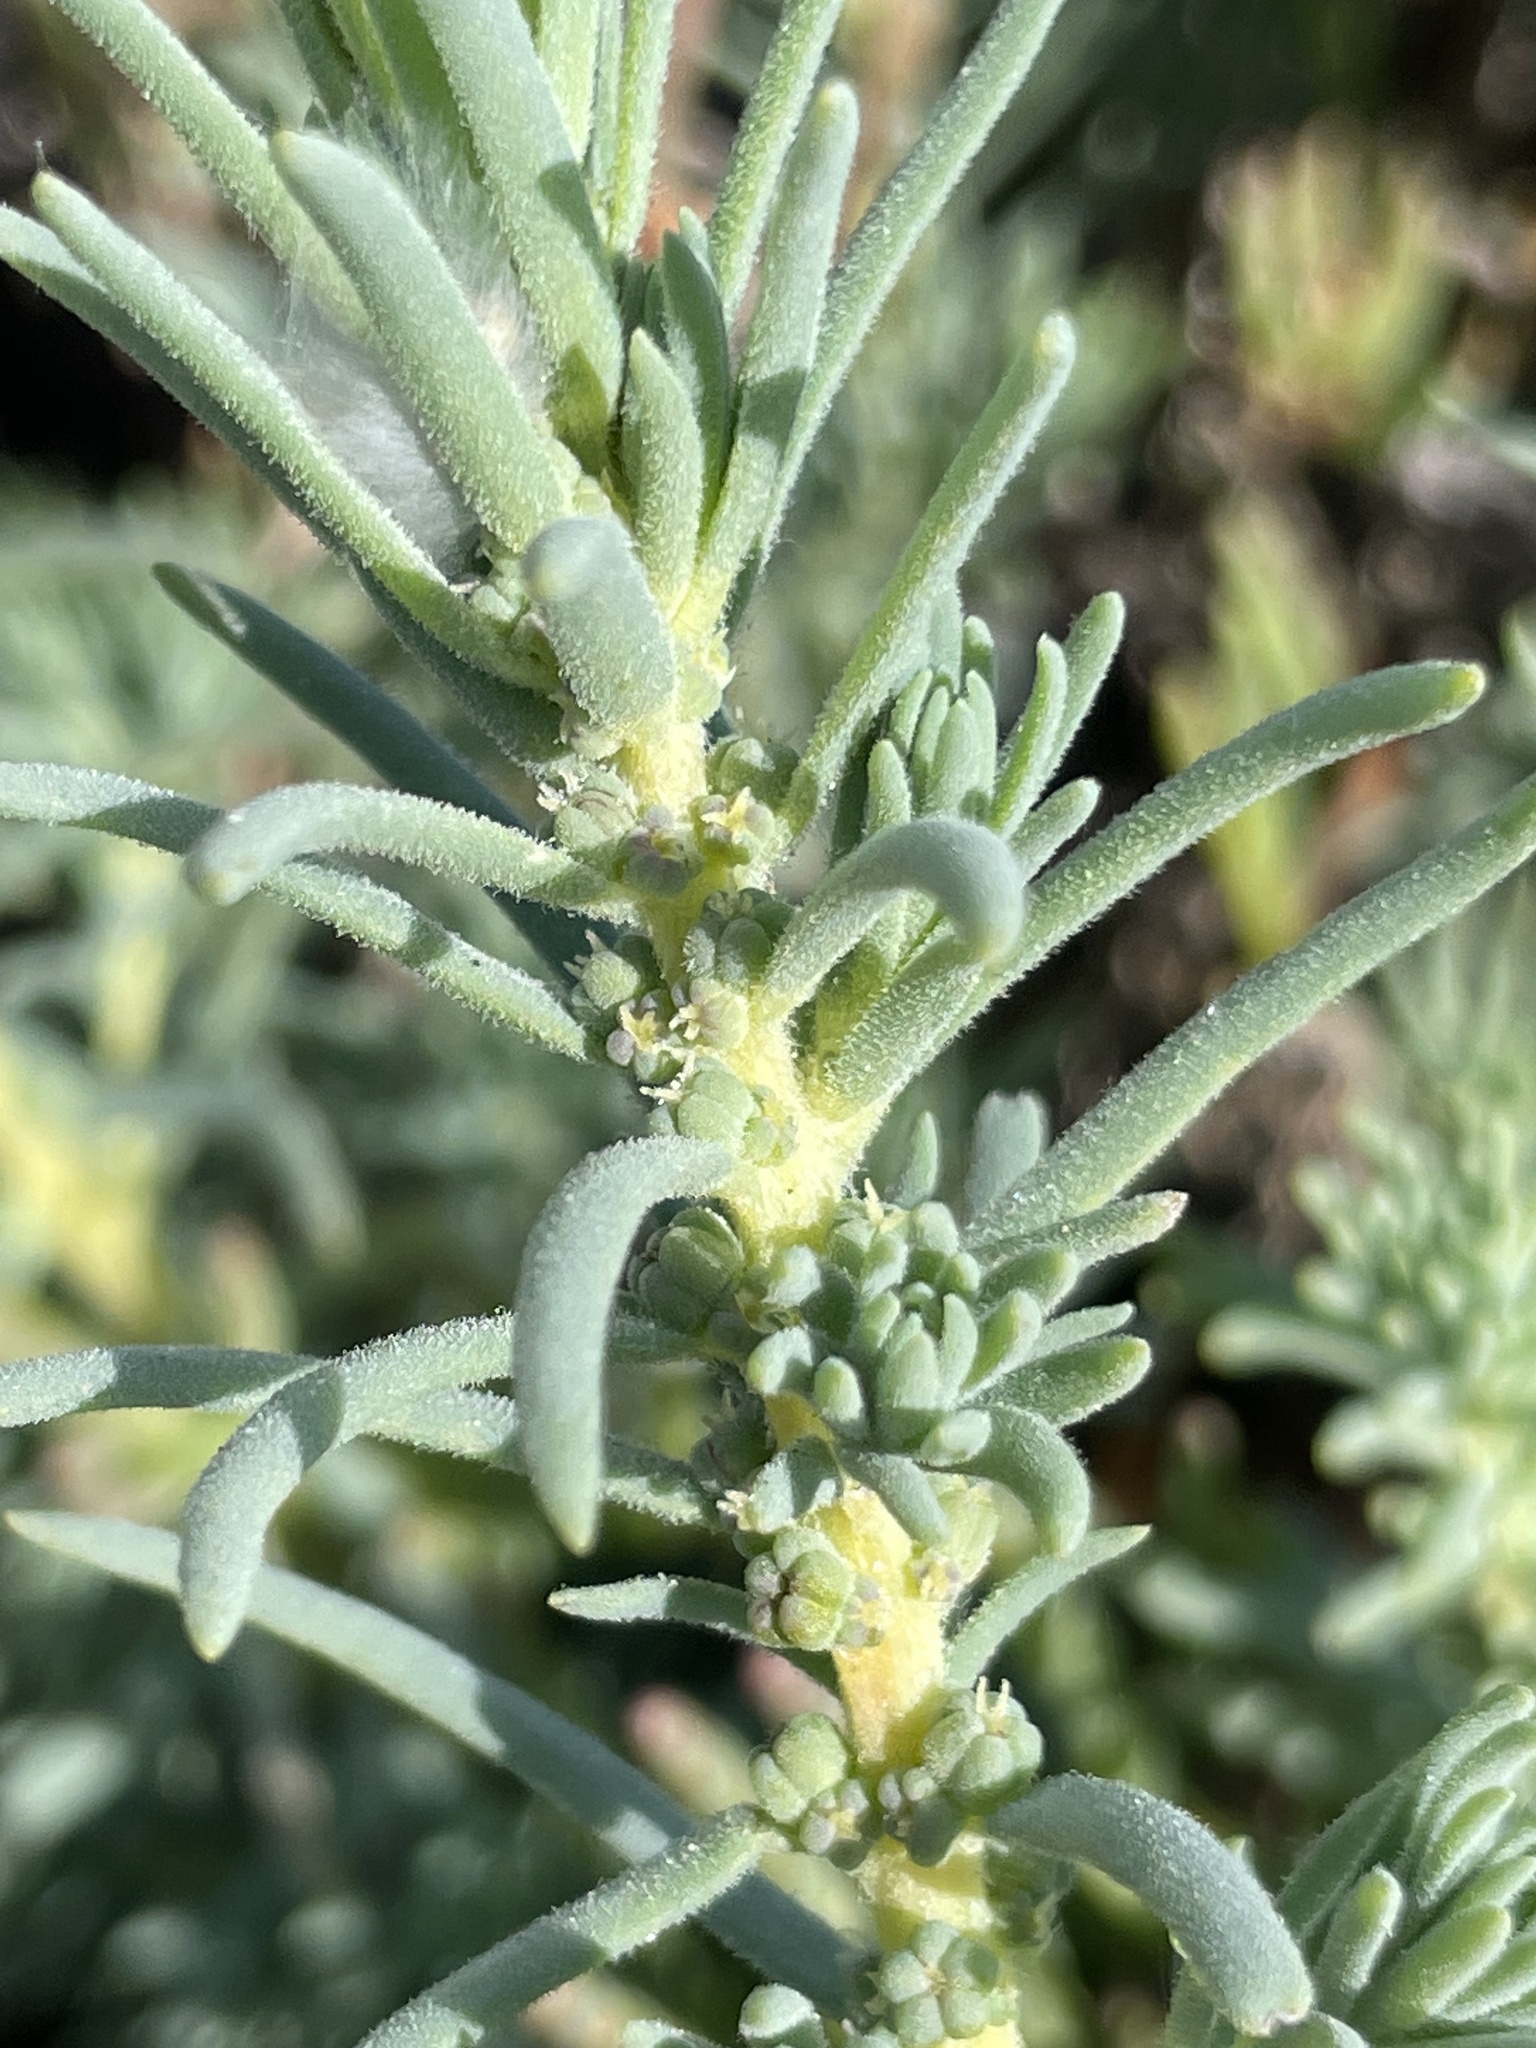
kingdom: Plantae
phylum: Tracheophyta
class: Magnoliopsida
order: Caryophyllales
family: Amaranthaceae
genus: Suaeda
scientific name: Suaeda taxifolia
